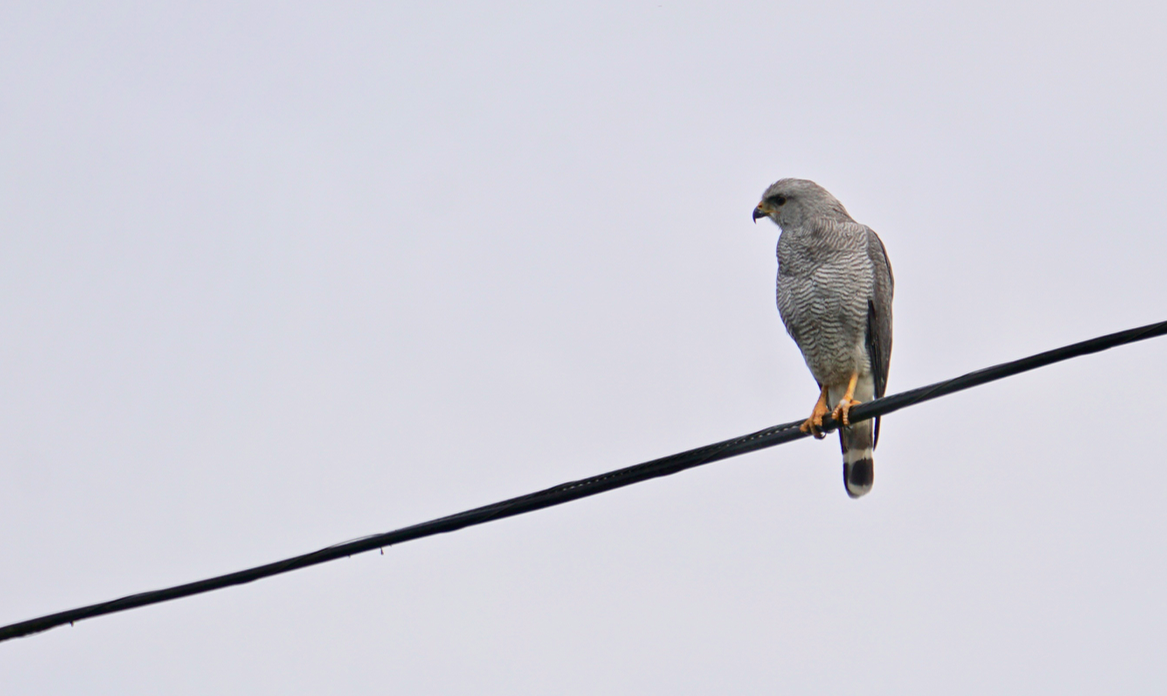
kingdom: Animalia
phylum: Chordata
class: Aves
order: Accipitriformes
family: Accipitridae
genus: Buteo
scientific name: Buteo nitidus
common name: Grey-lined hawk
